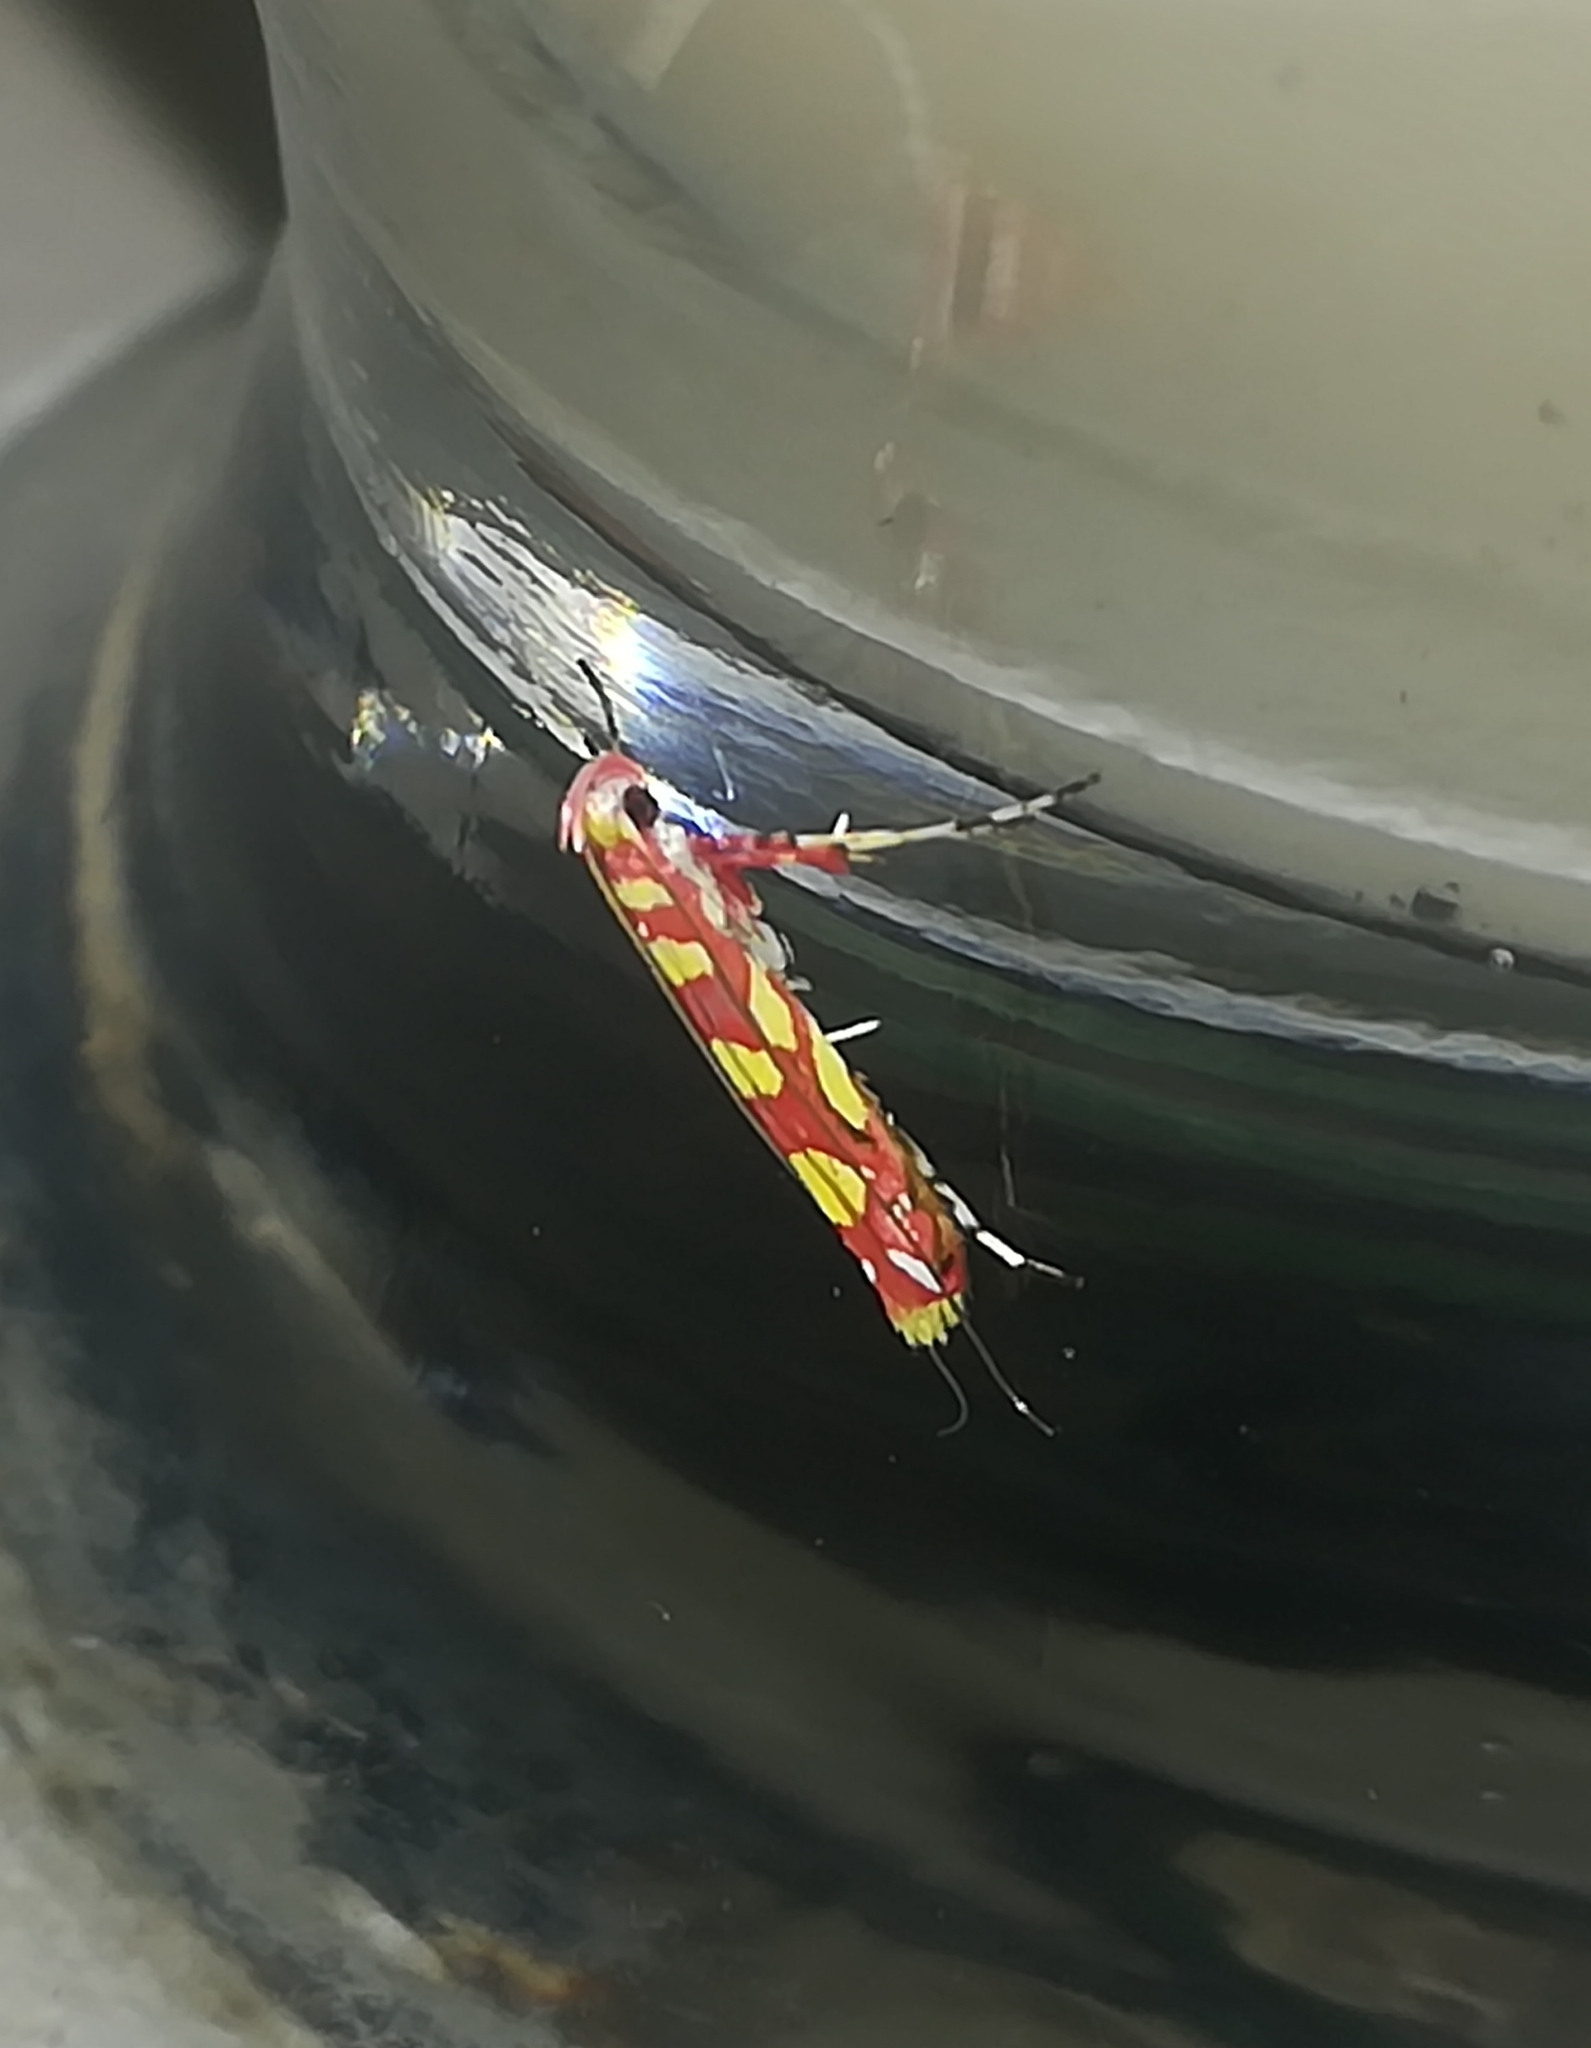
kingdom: Animalia
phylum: Arthropoda
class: Insecta
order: Lepidoptera
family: Gracillariidae
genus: Macarostola
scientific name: Macarostola noellineae
